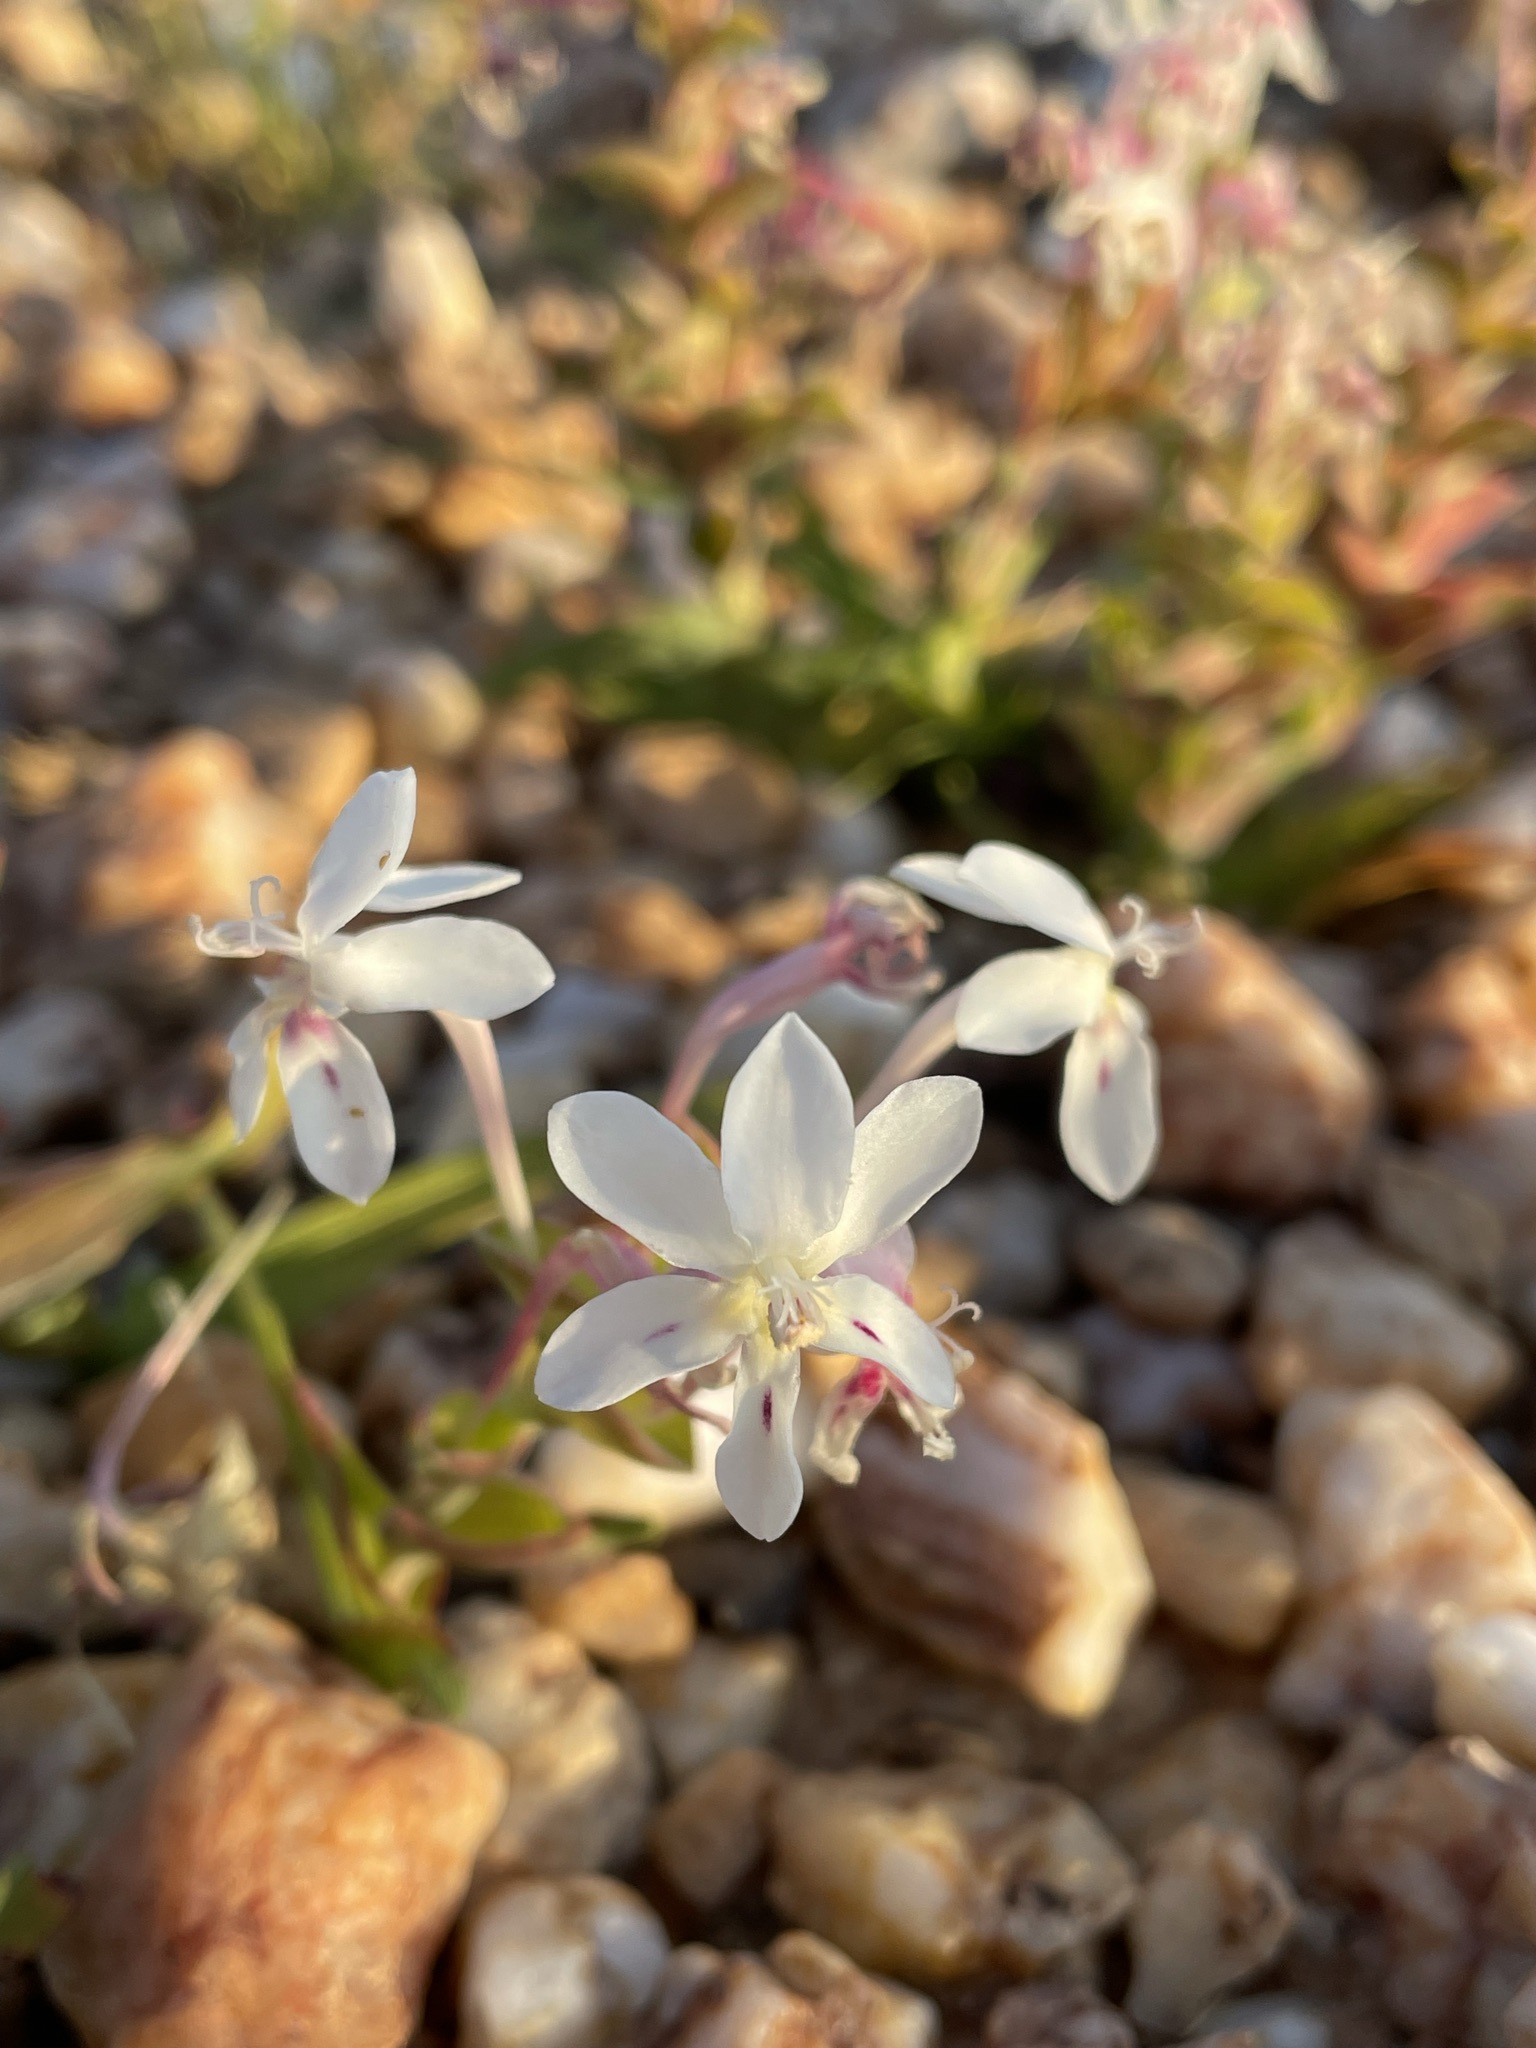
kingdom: Plantae
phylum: Tracheophyta
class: Liliopsida
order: Asparagales
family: Iridaceae
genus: Lapeirousia
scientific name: Lapeirousia pyramidalis
